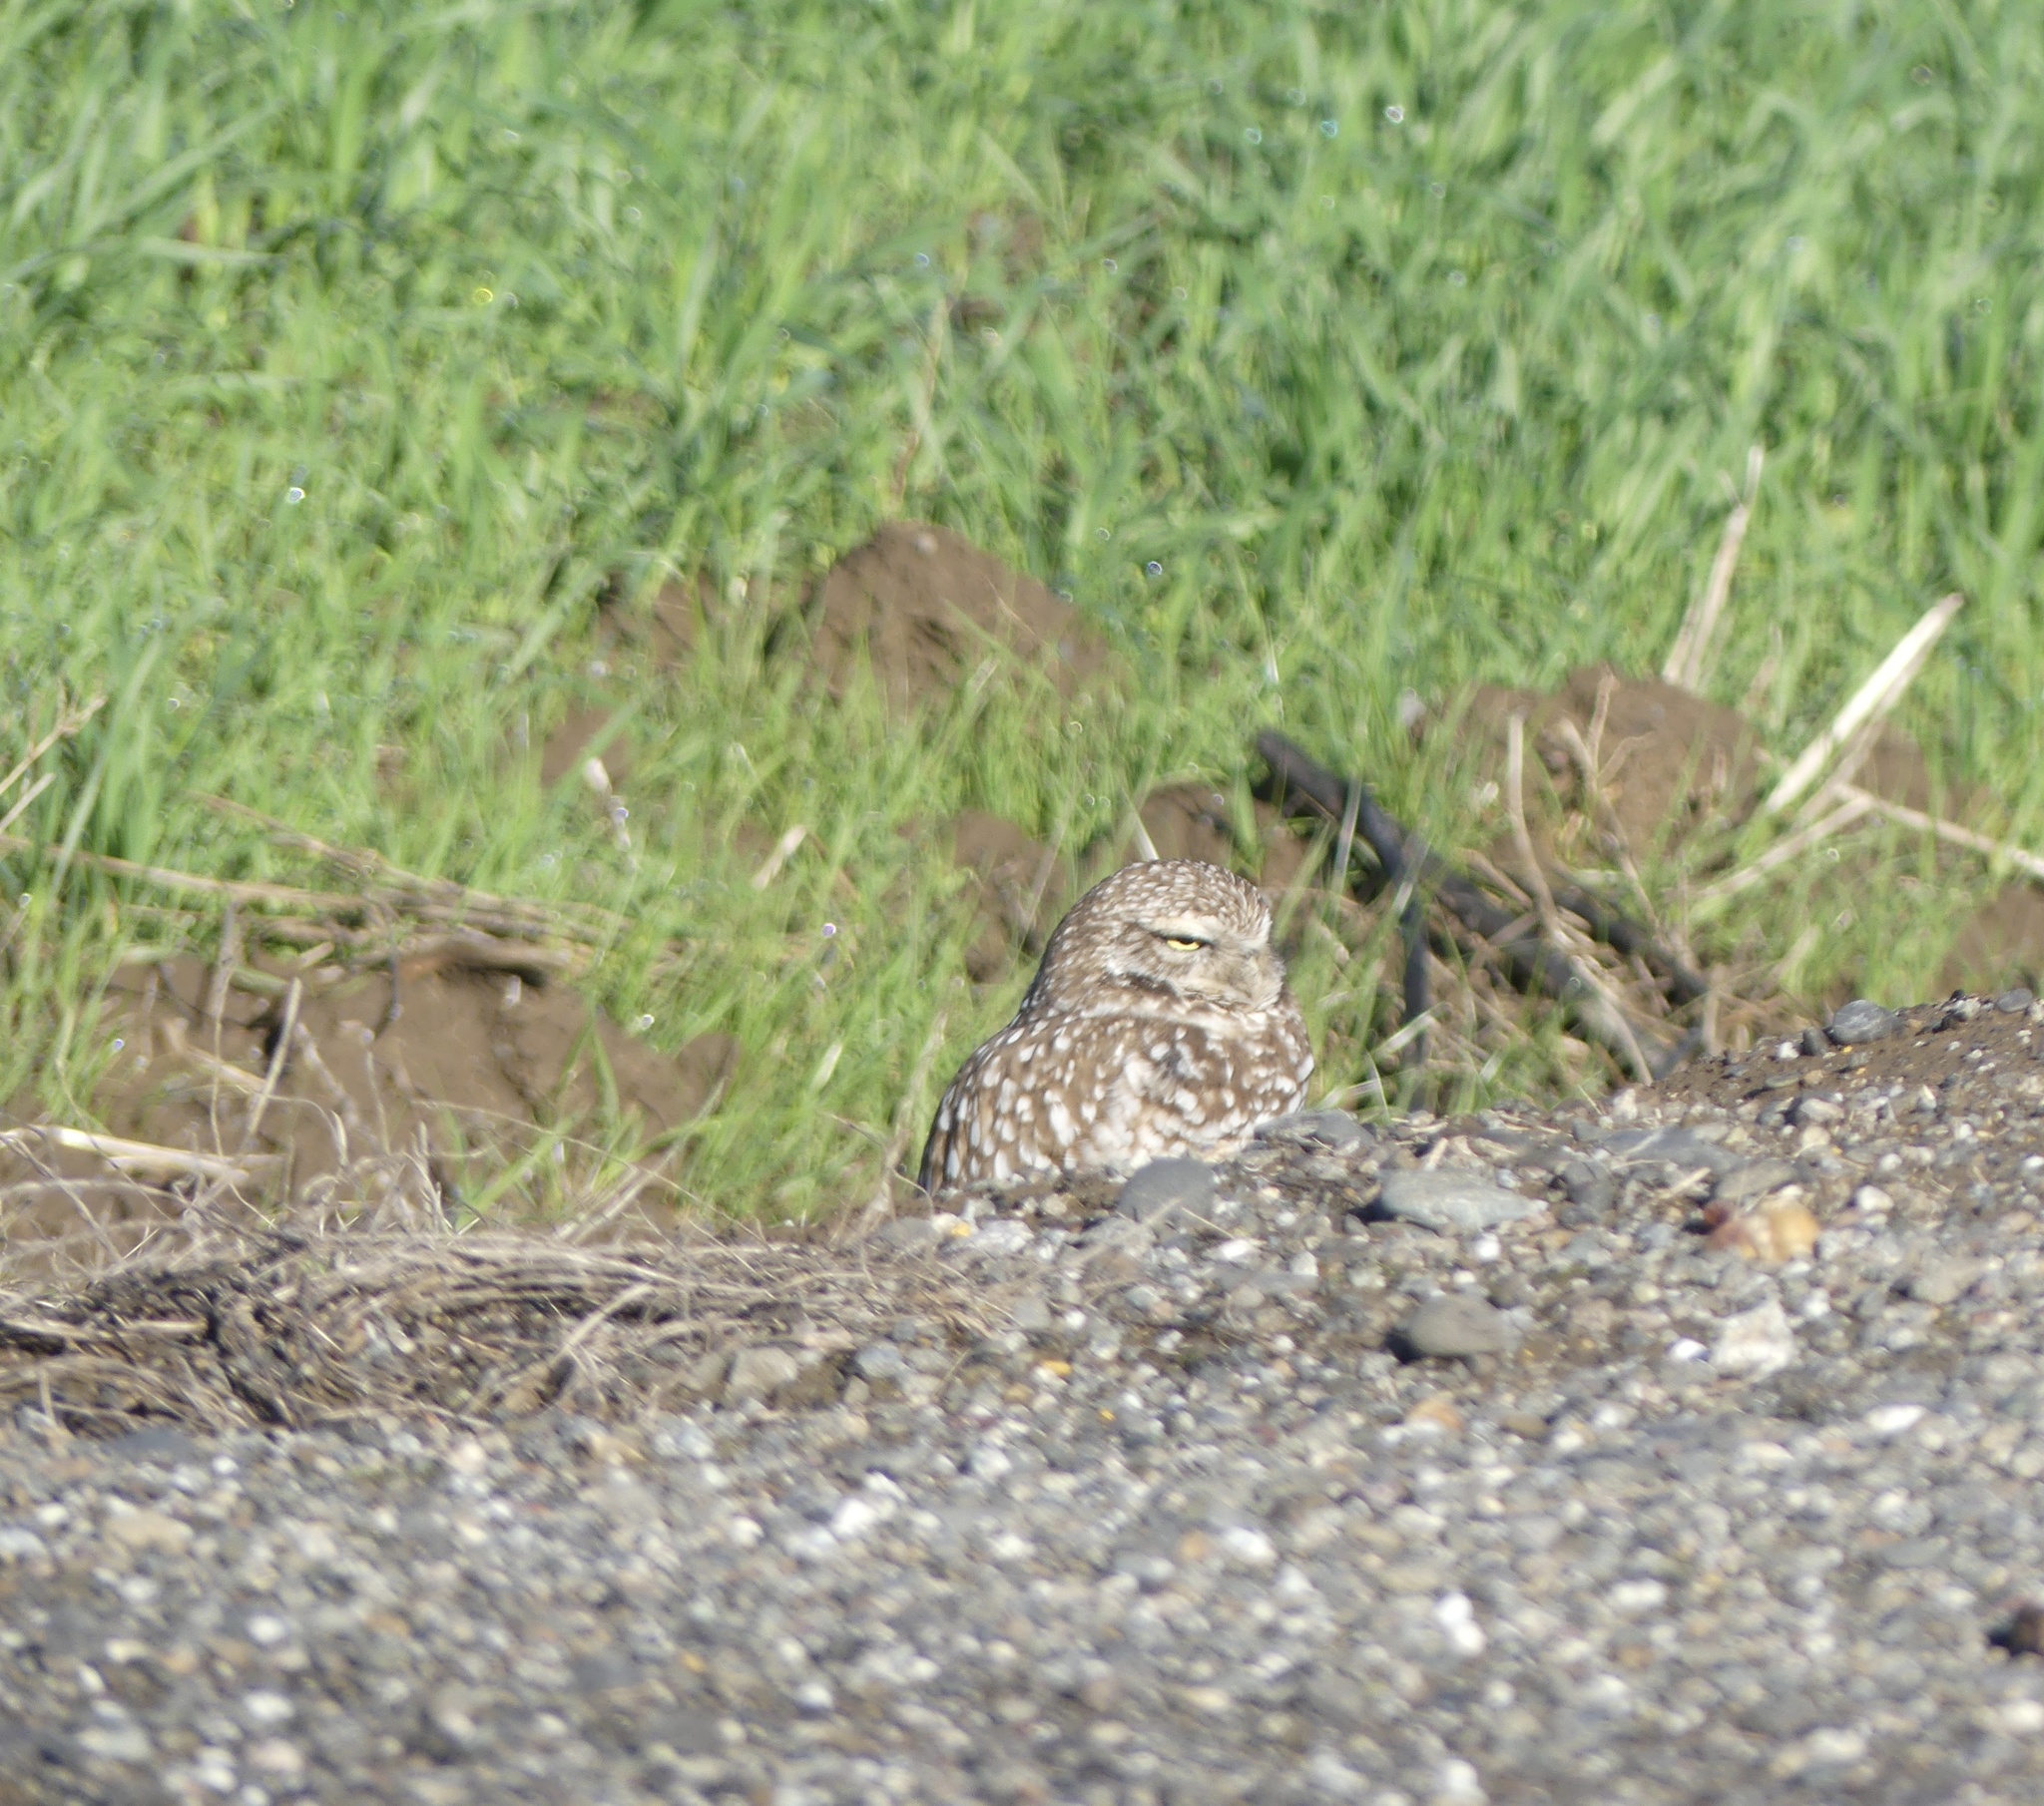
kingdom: Animalia
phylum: Chordata
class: Aves
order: Strigiformes
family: Strigidae
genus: Athene
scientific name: Athene cunicularia
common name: Burrowing owl
